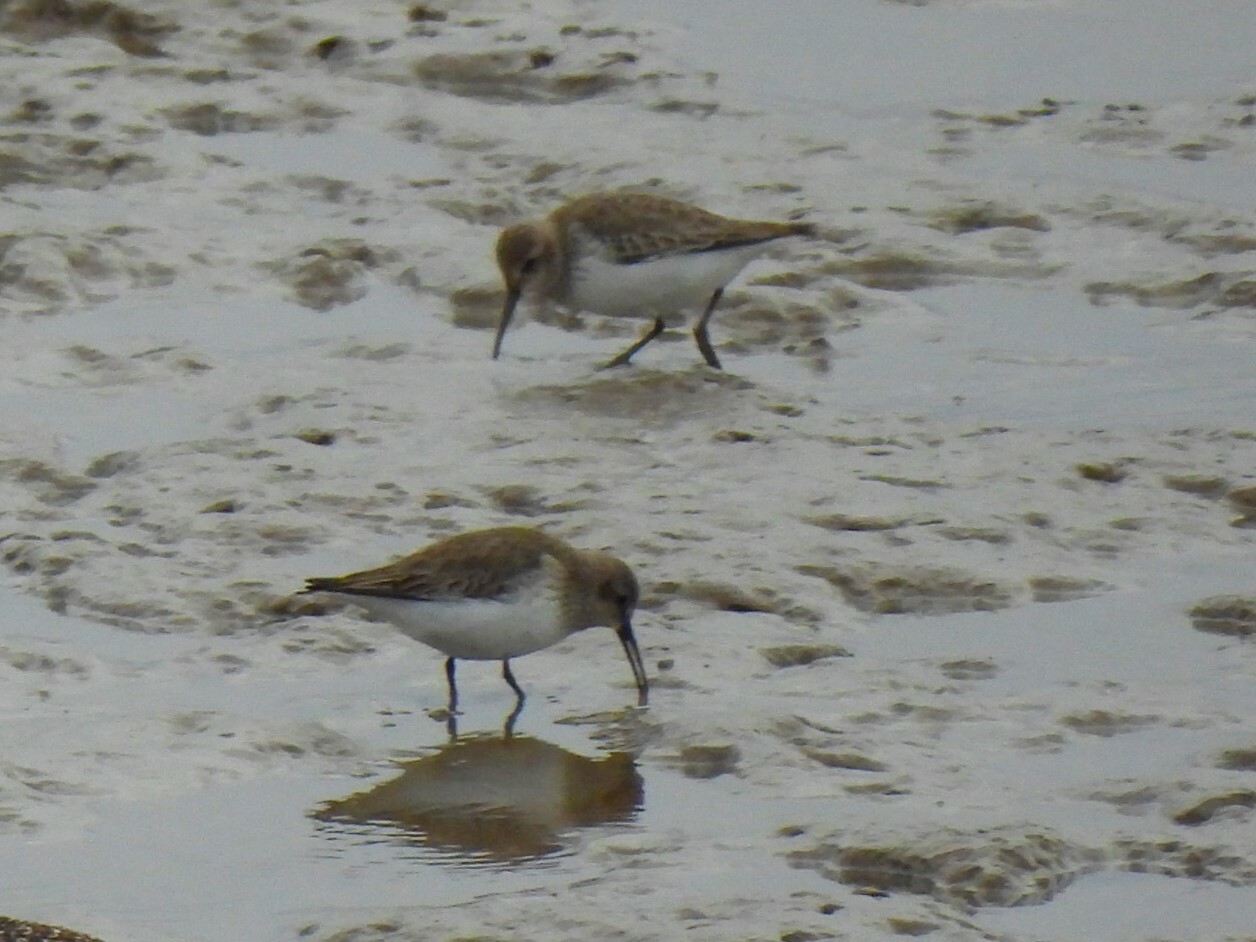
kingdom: Animalia
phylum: Chordata
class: Aves
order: Charadriiformes
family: Scolopacidae
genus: Calidris
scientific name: Calidris alpina
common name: Dunlin
